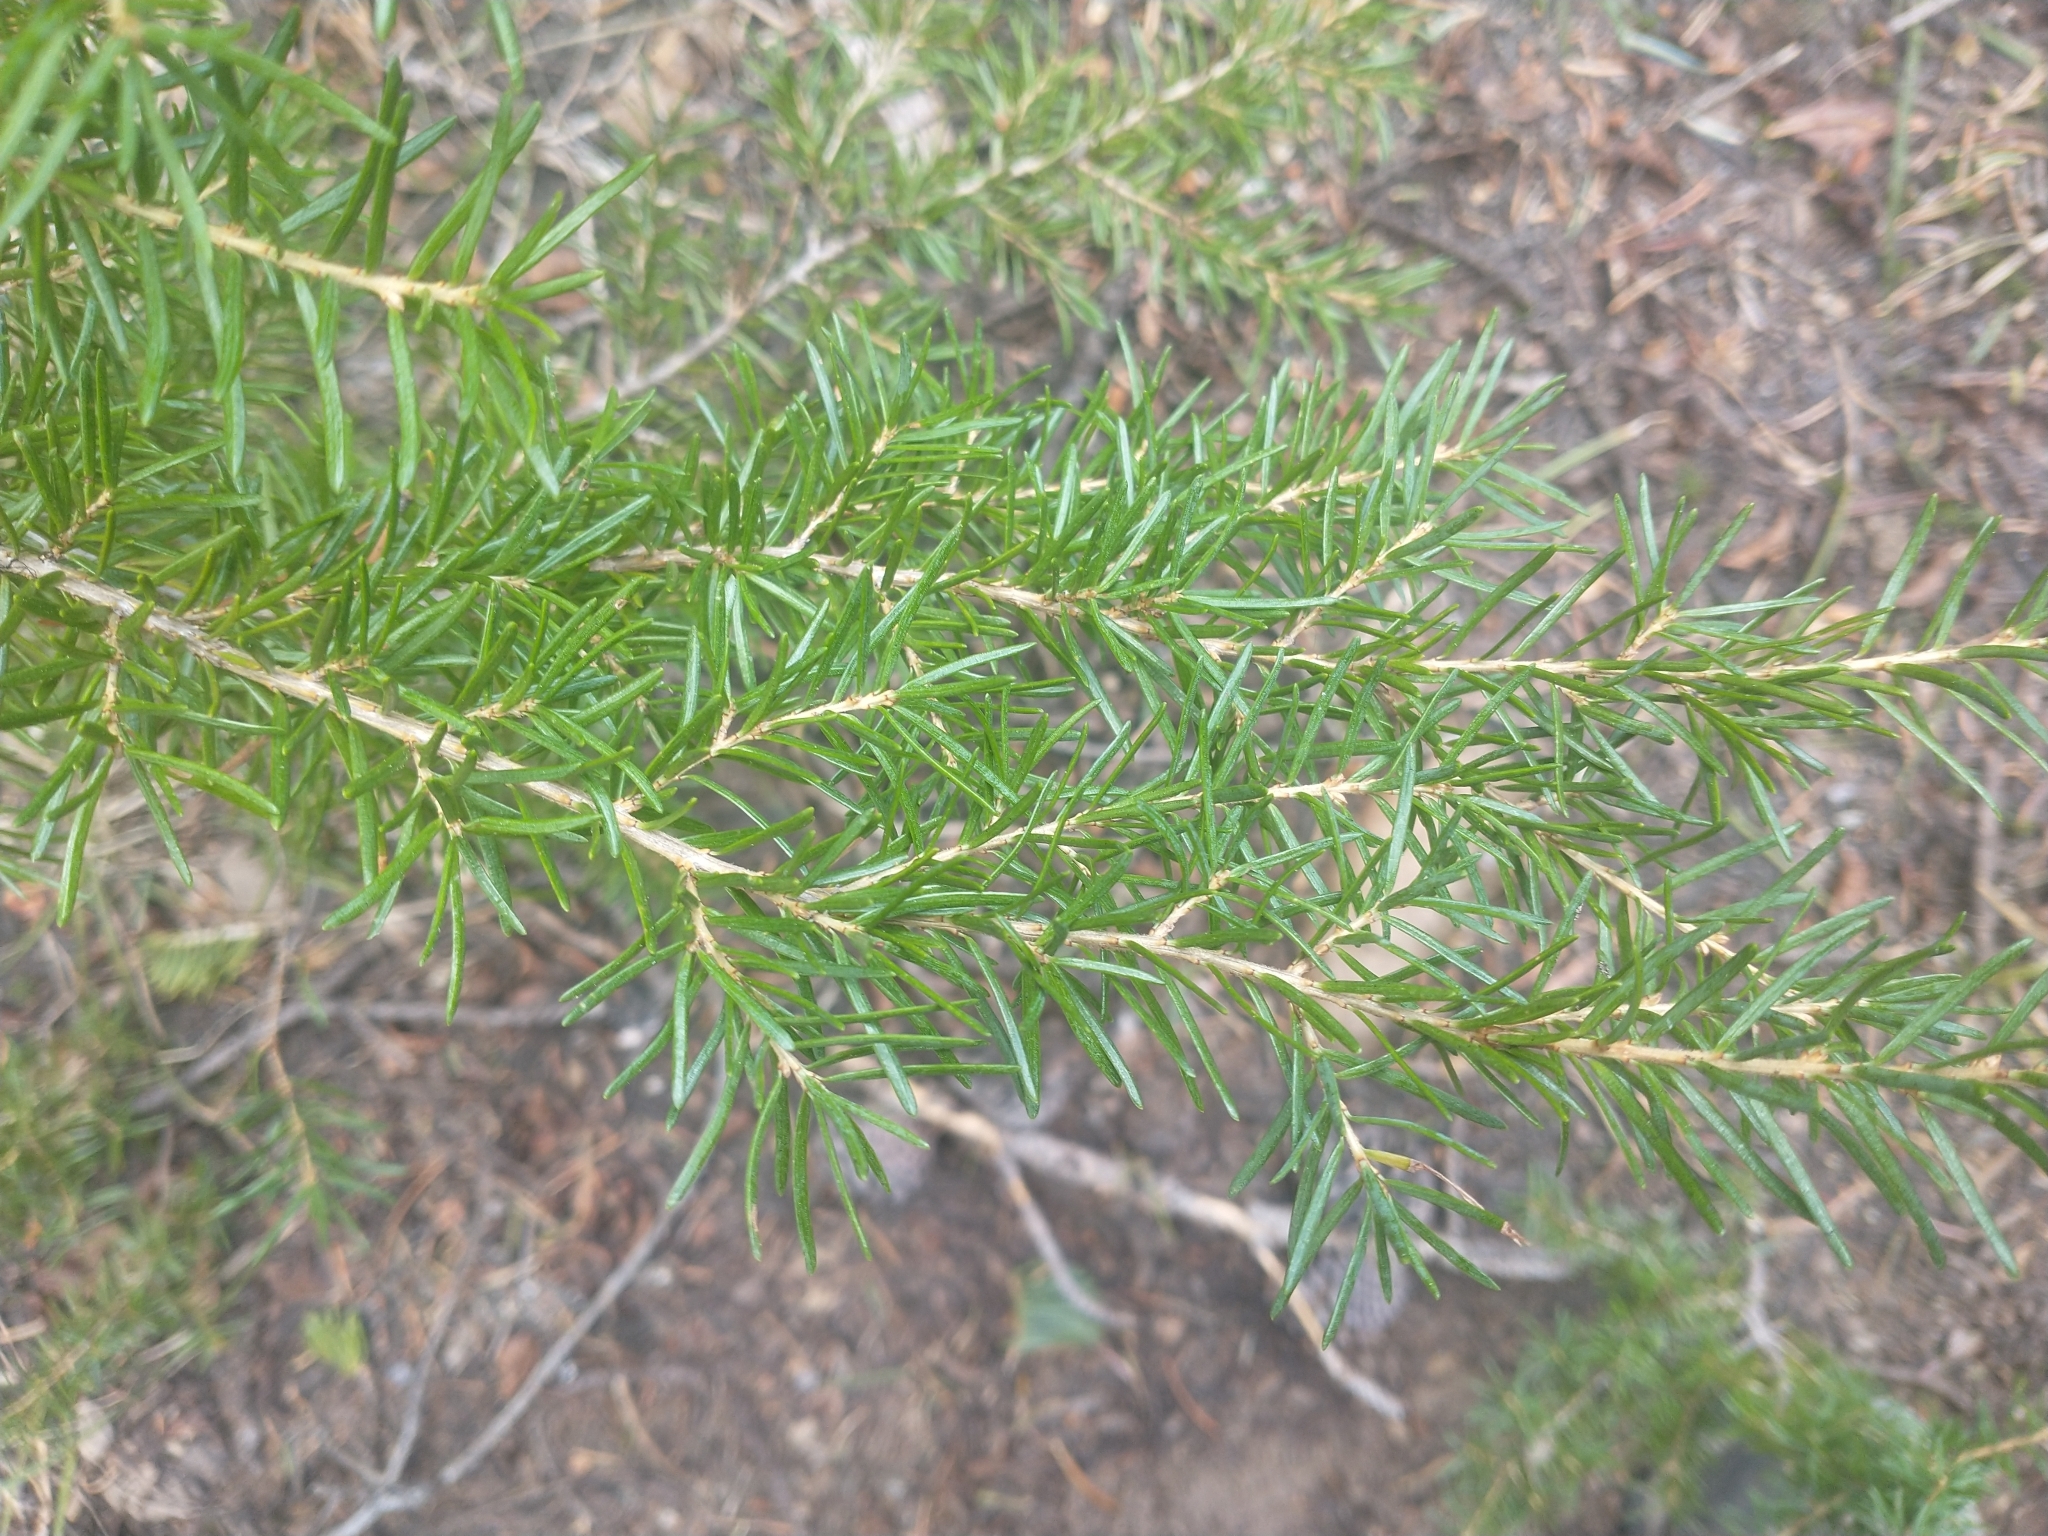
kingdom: Plantae
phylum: Tracheophyta
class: Pinopsida
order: Pinales
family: Pinaceae
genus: Tsuga
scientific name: Tsuga mertensiana
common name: Mountain hemlock
